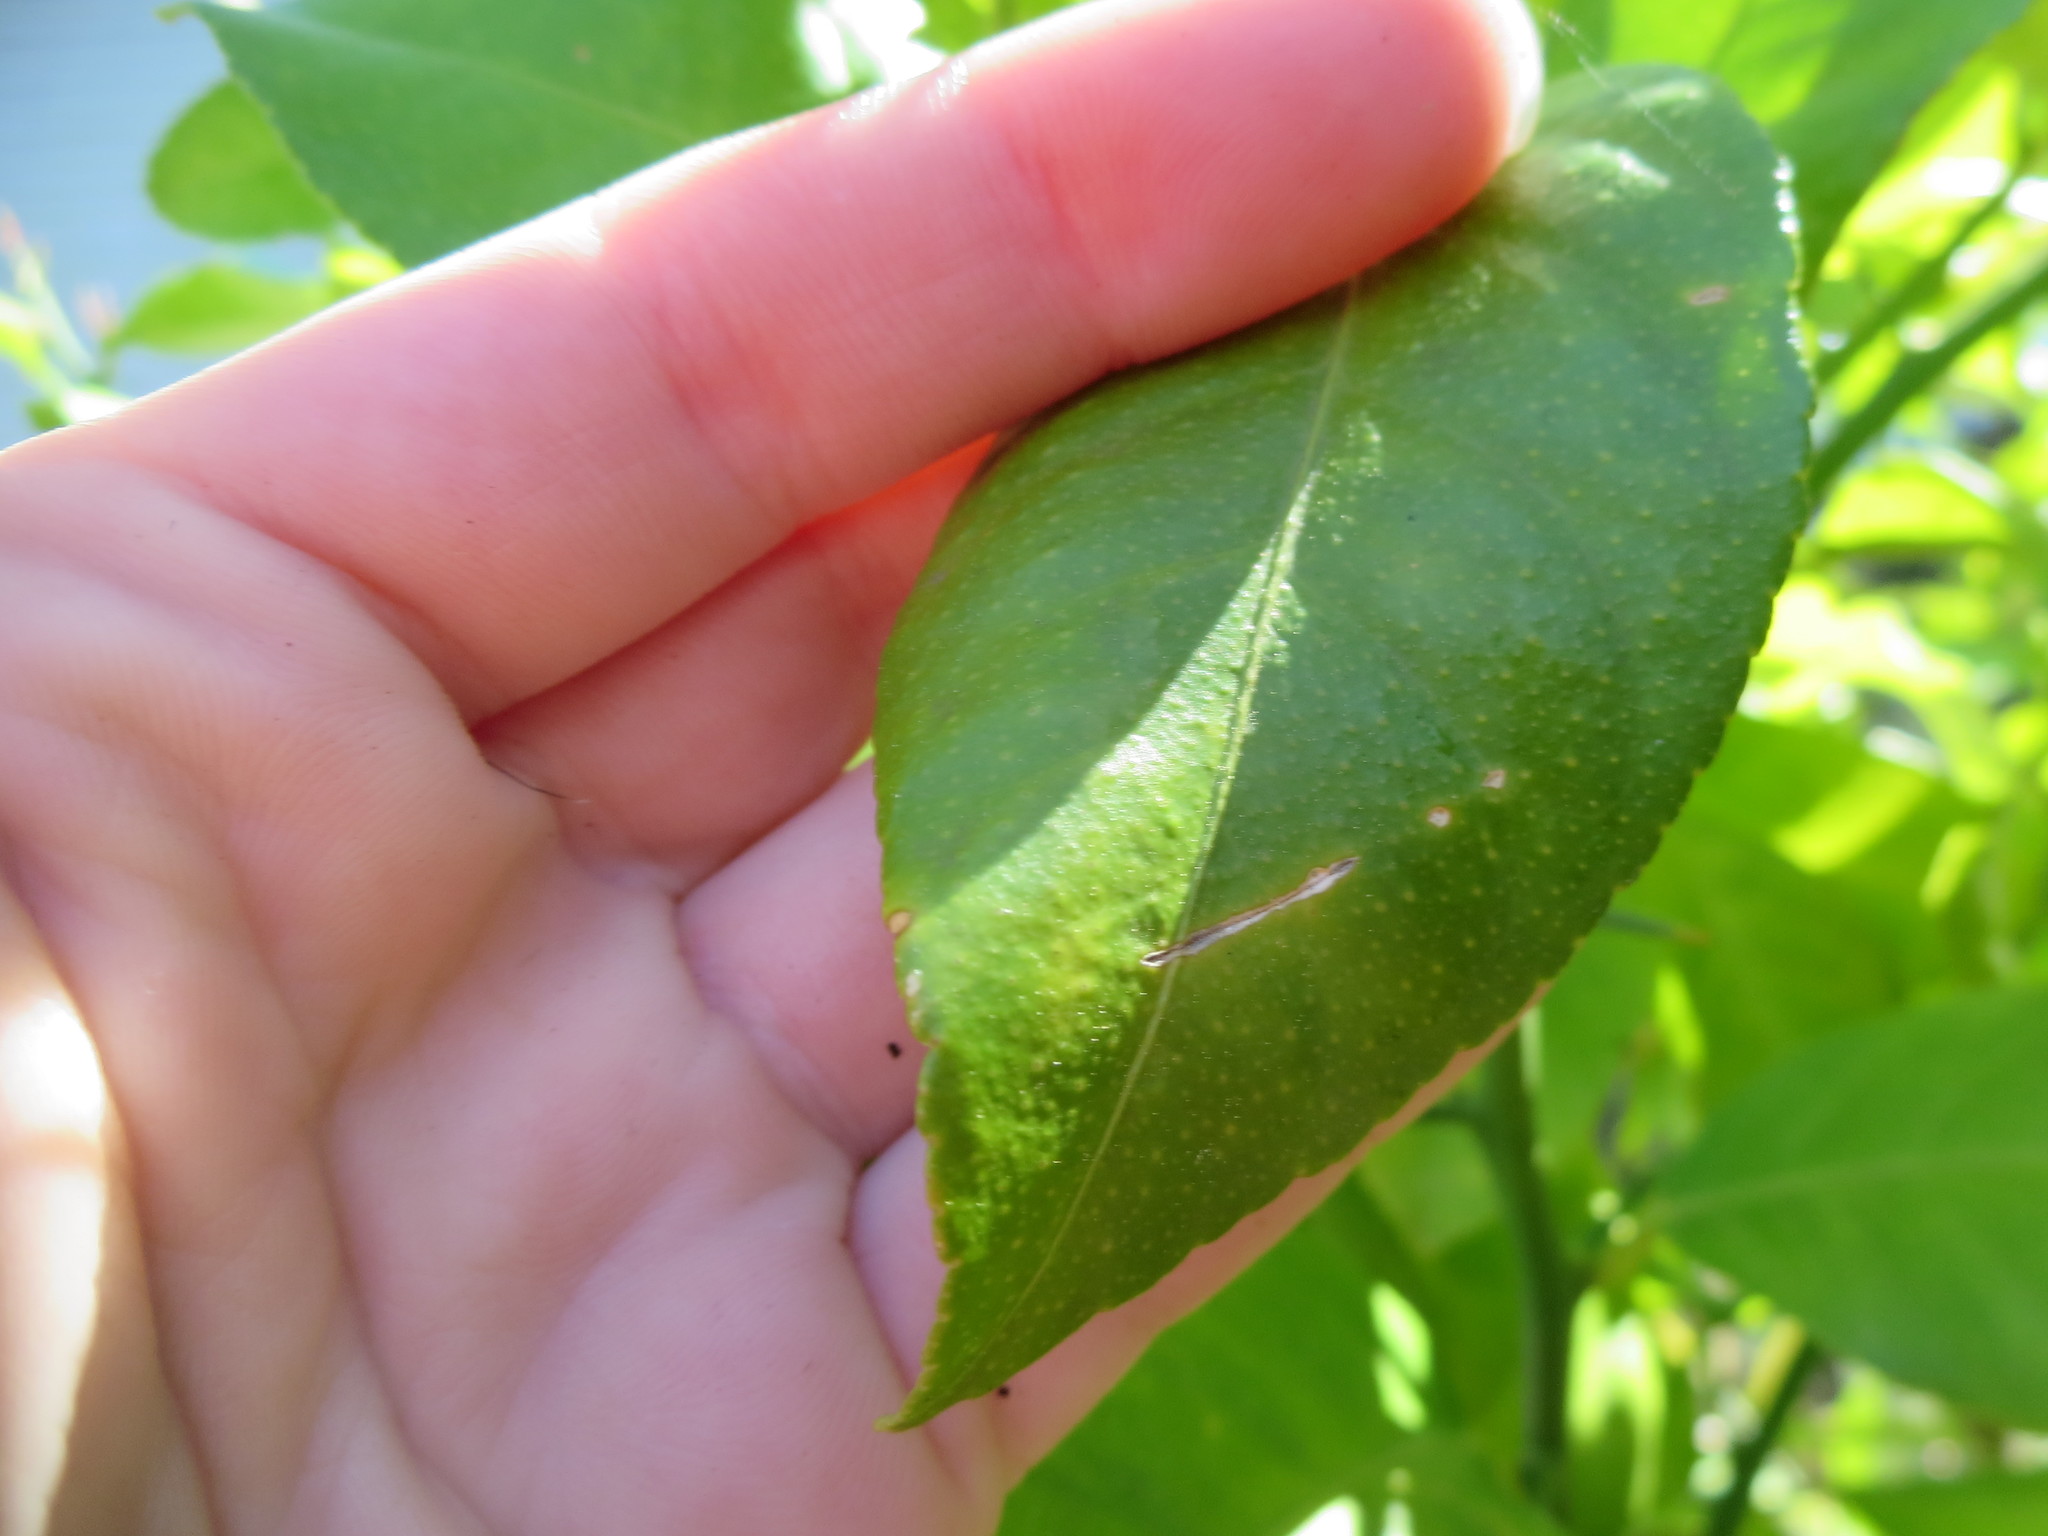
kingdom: Animalia
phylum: Arthropoda
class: Insecta
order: Lepidoptera
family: Gracillariidae
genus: Phyllocnistis
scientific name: Phyllocnistis citrella
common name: Citrus leafminer
